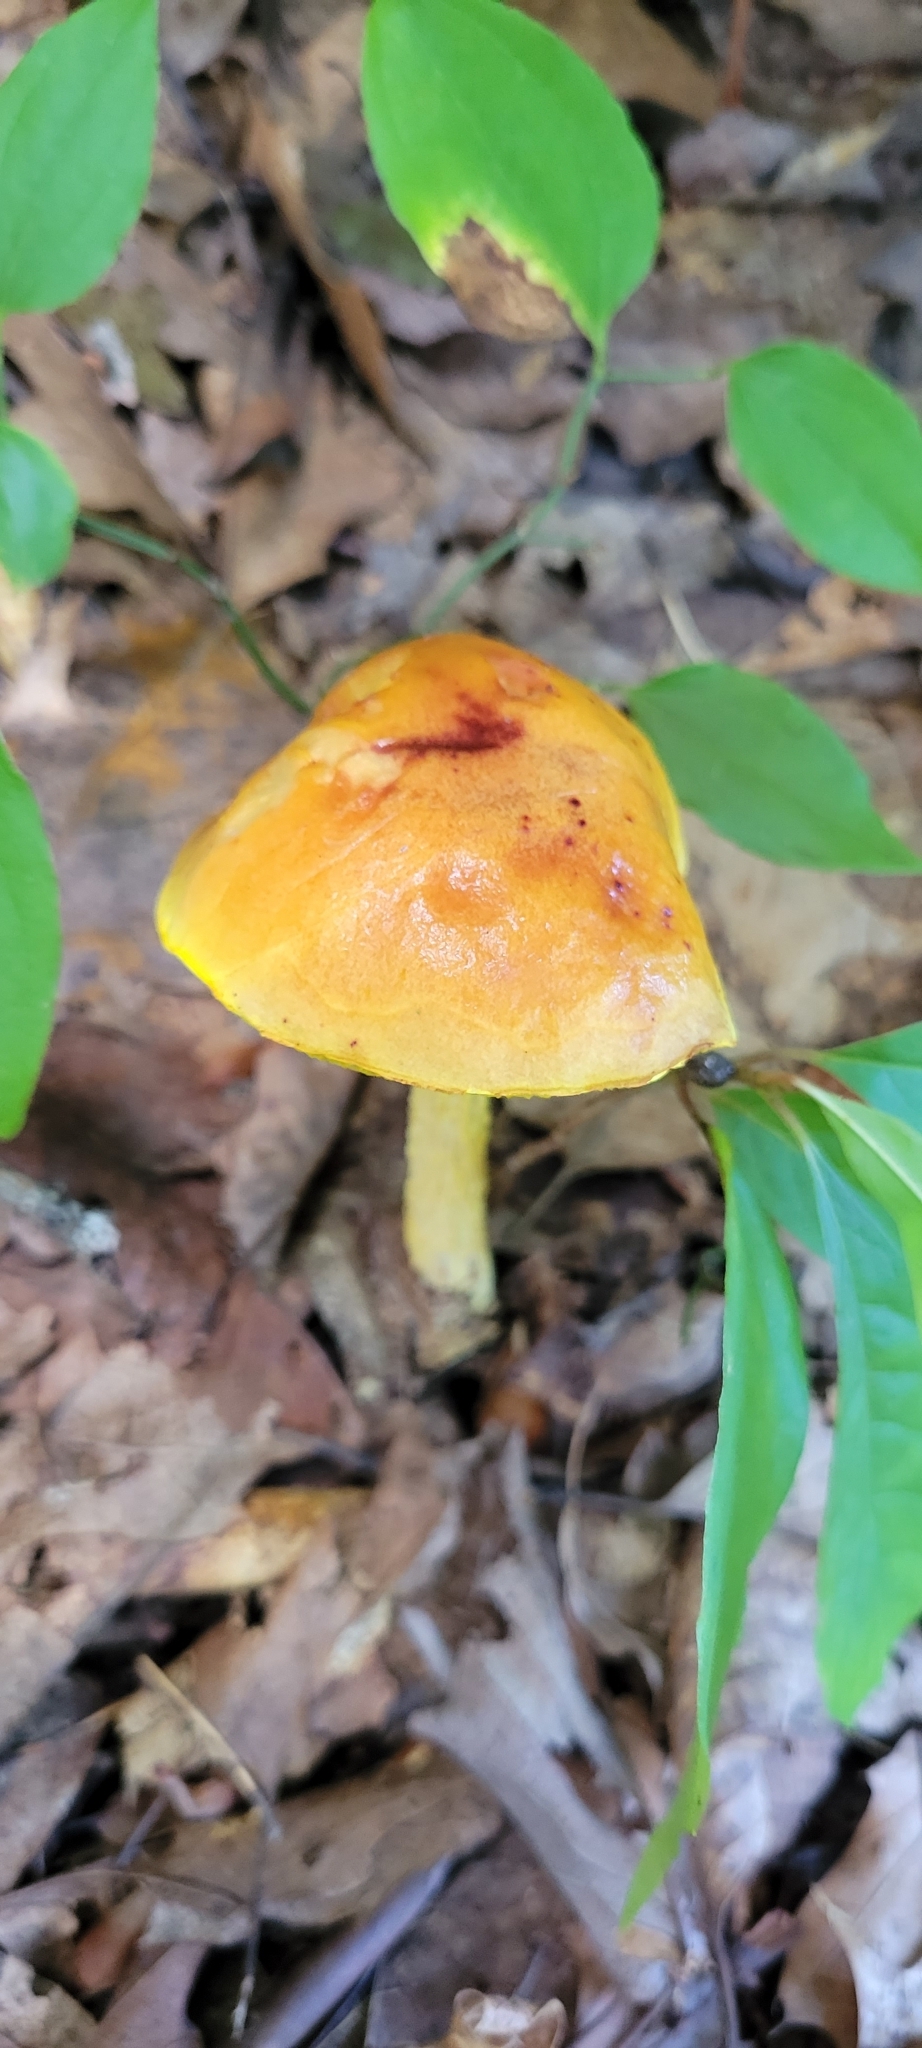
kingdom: Fungi
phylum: Basidiomycota
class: Agaricomycetes
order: Boletales
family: Boletaceae
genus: Aureoboletus
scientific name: Aureoboletus betula
